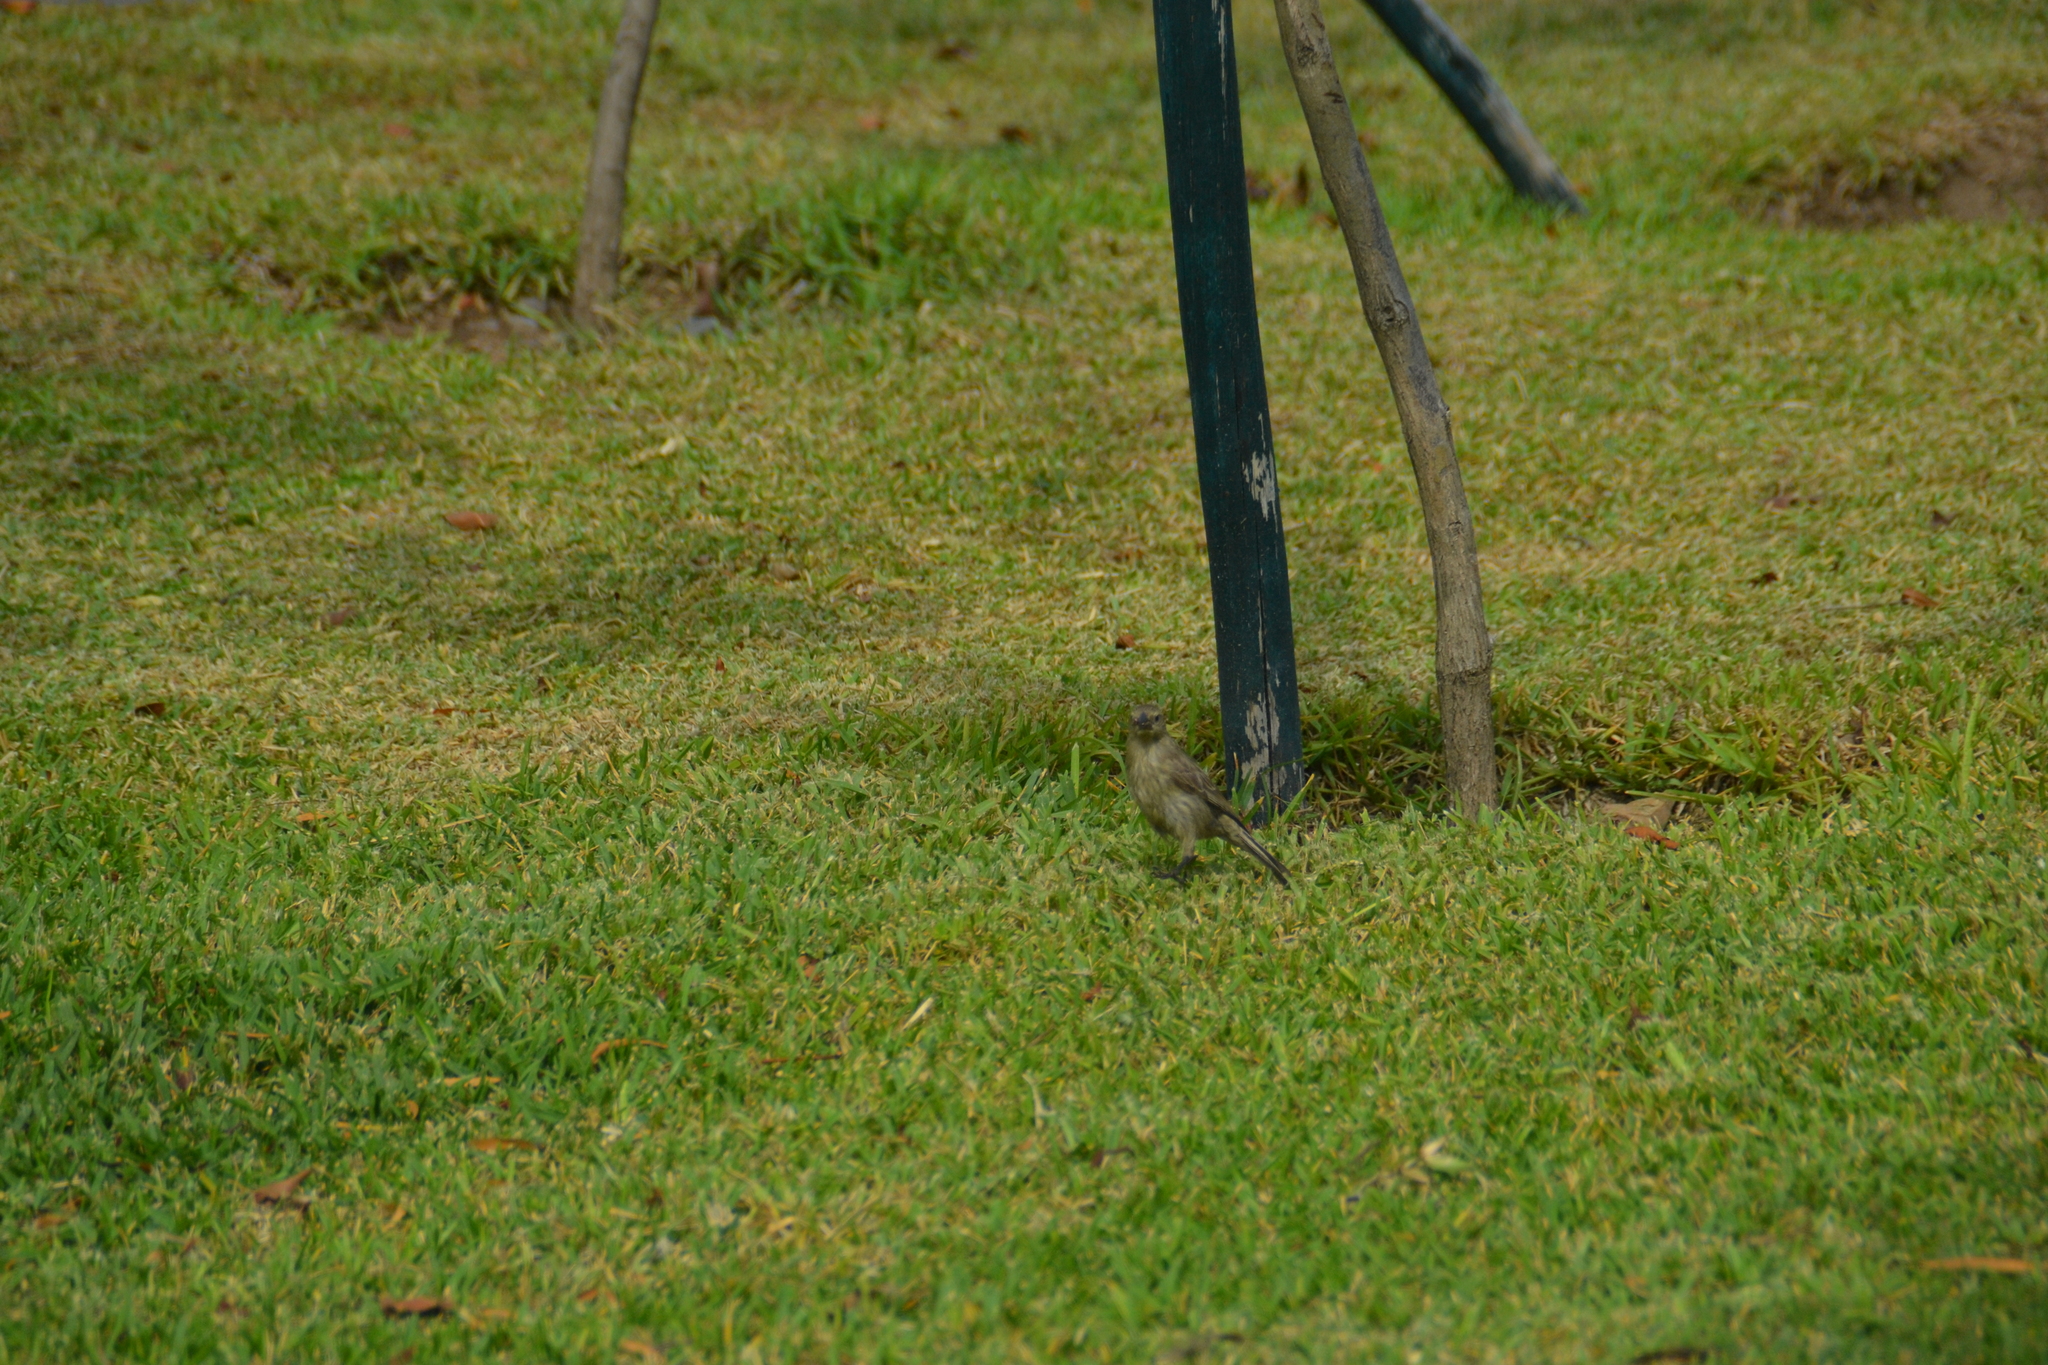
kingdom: Animalia
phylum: Chordata
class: Aves
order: Passeriformes
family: Icteridae
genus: Molothrus
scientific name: Molothrus bonariensis
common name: Shiny cowbird
